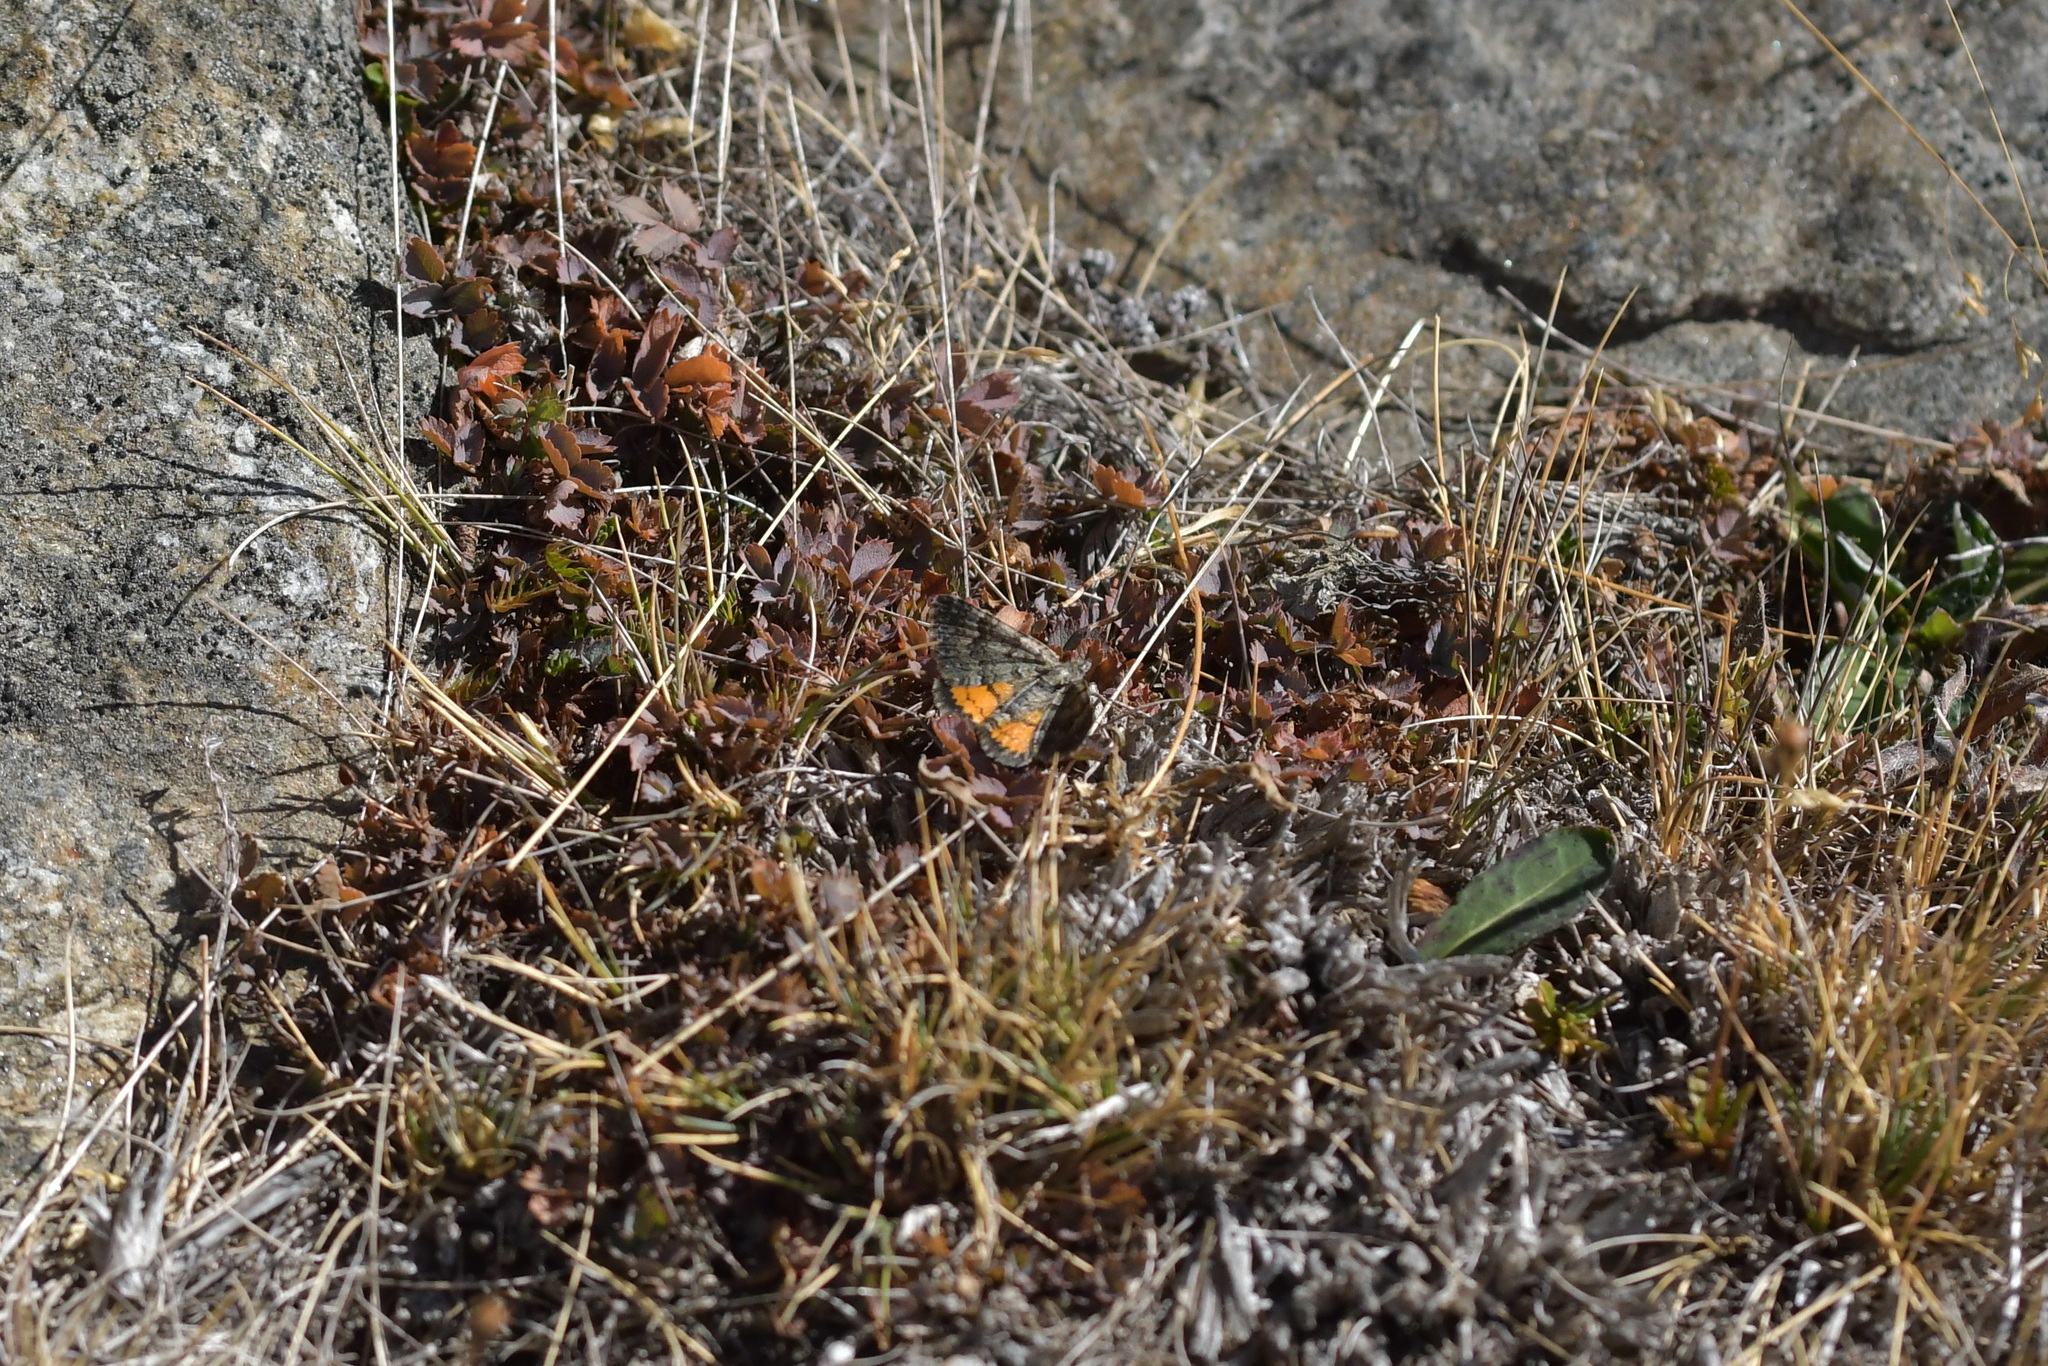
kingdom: Animalia
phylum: Arthropoda
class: Insecta
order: Lepidoptera
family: Geometridae
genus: Paranotoreas
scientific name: Paranotoreas brephosata
